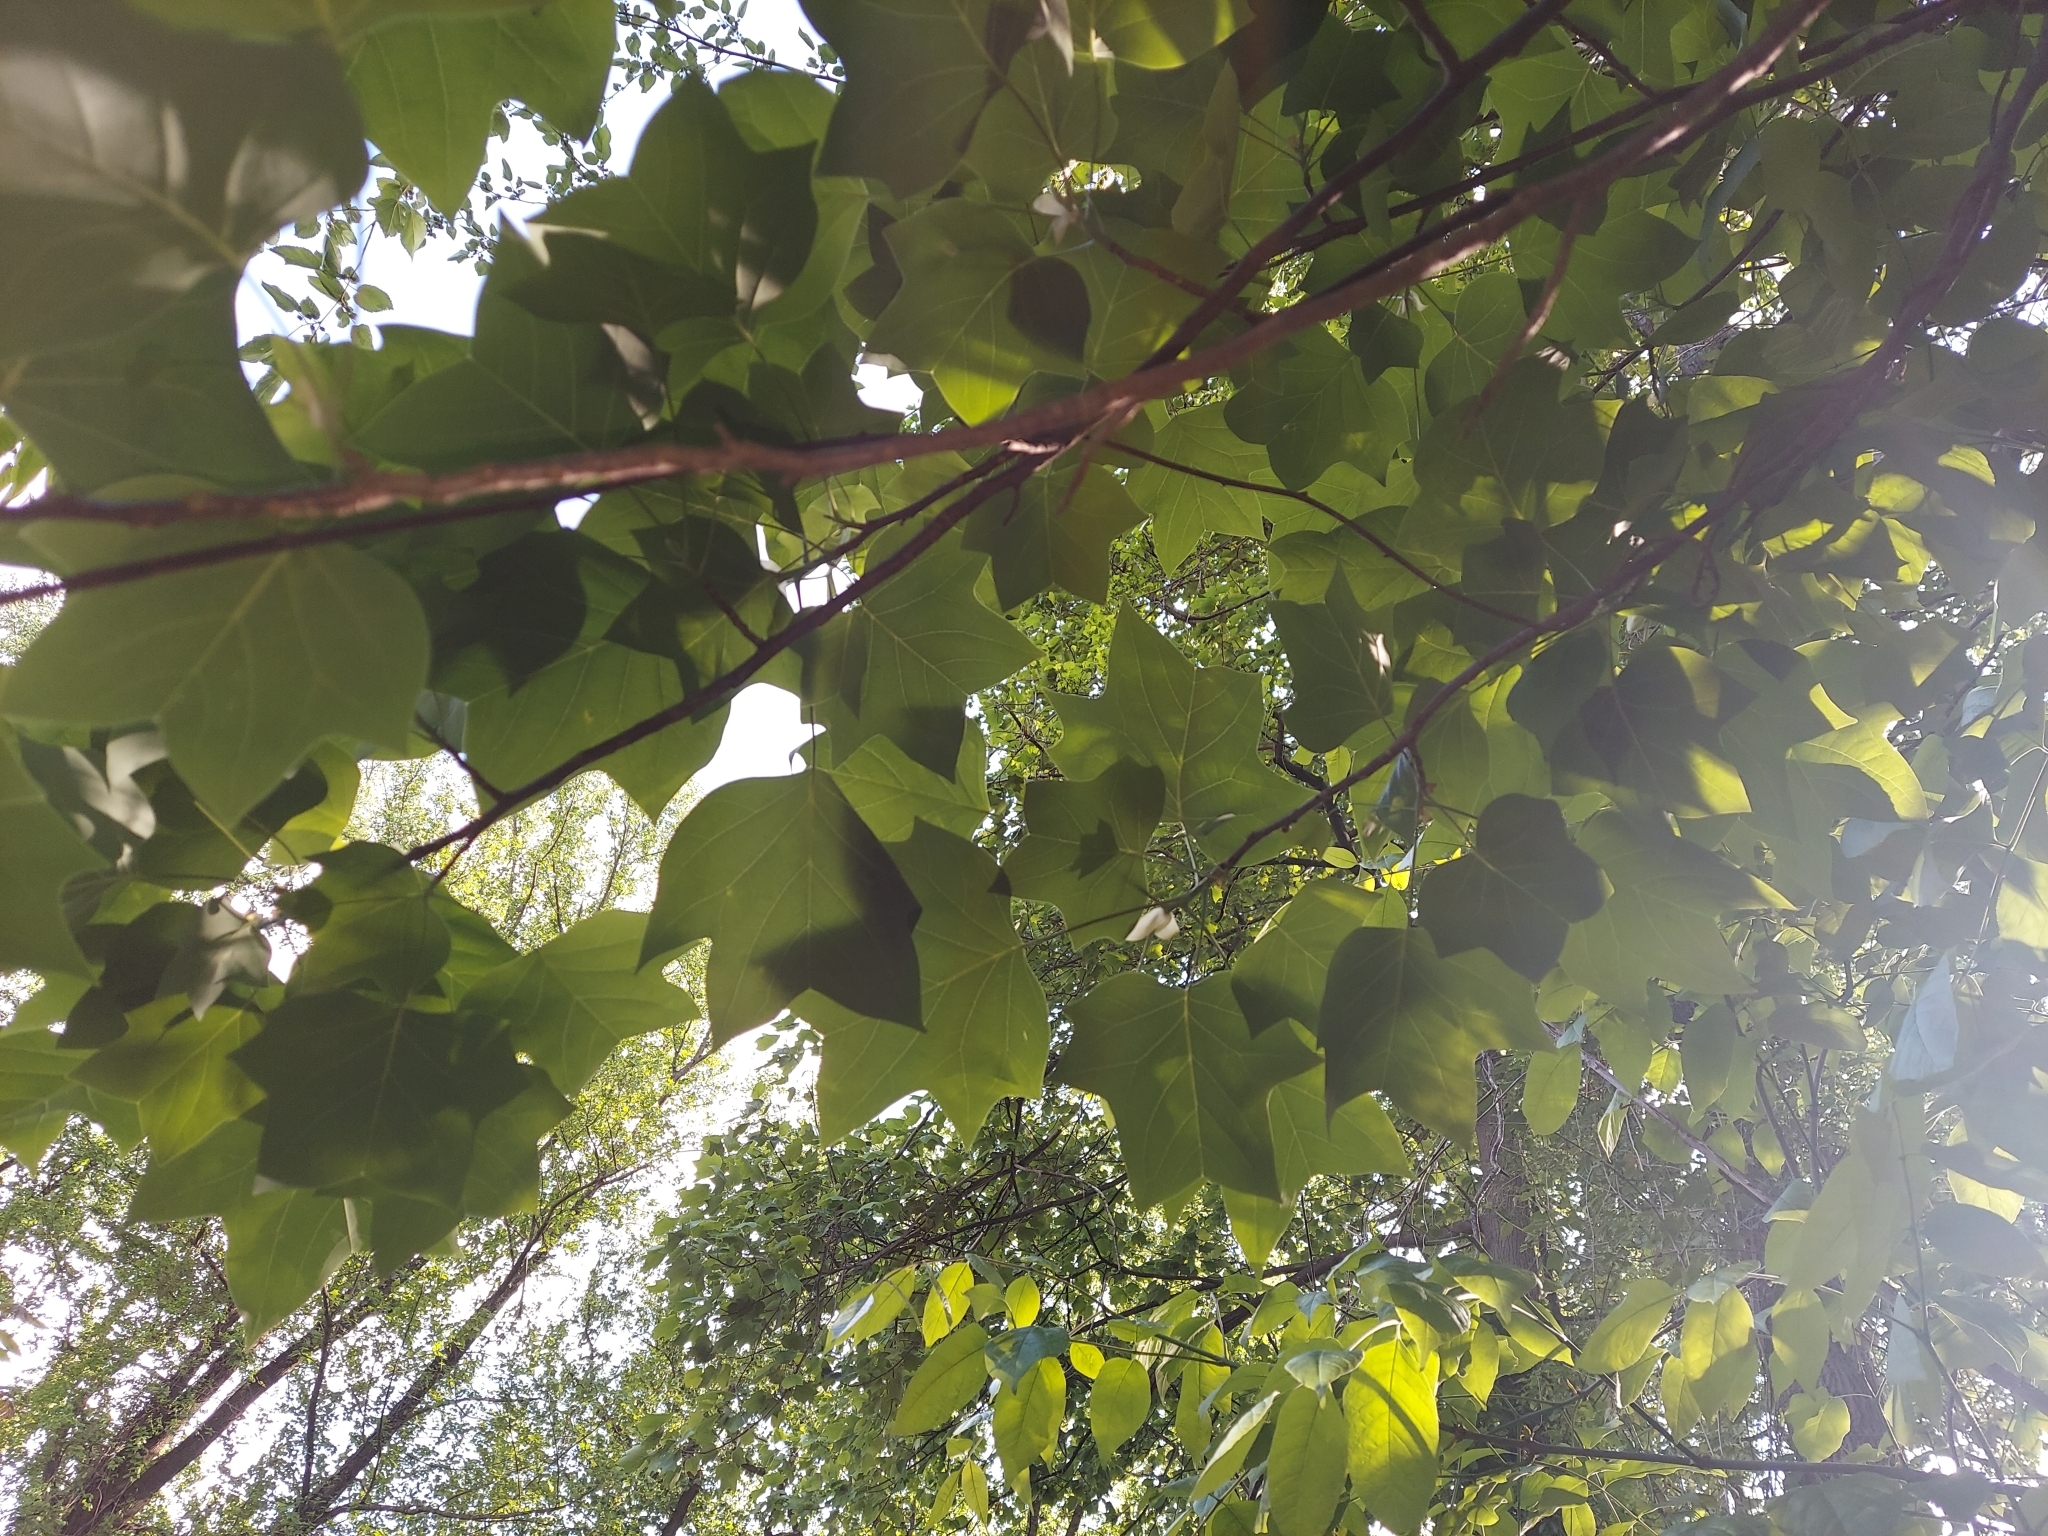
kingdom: Plantae
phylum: Tracheophyta
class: Magnoliopsida
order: Magnoliales
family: Magnoliaceae
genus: Liriodendron
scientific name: Liriodendron tulipifera
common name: Tulip tree
